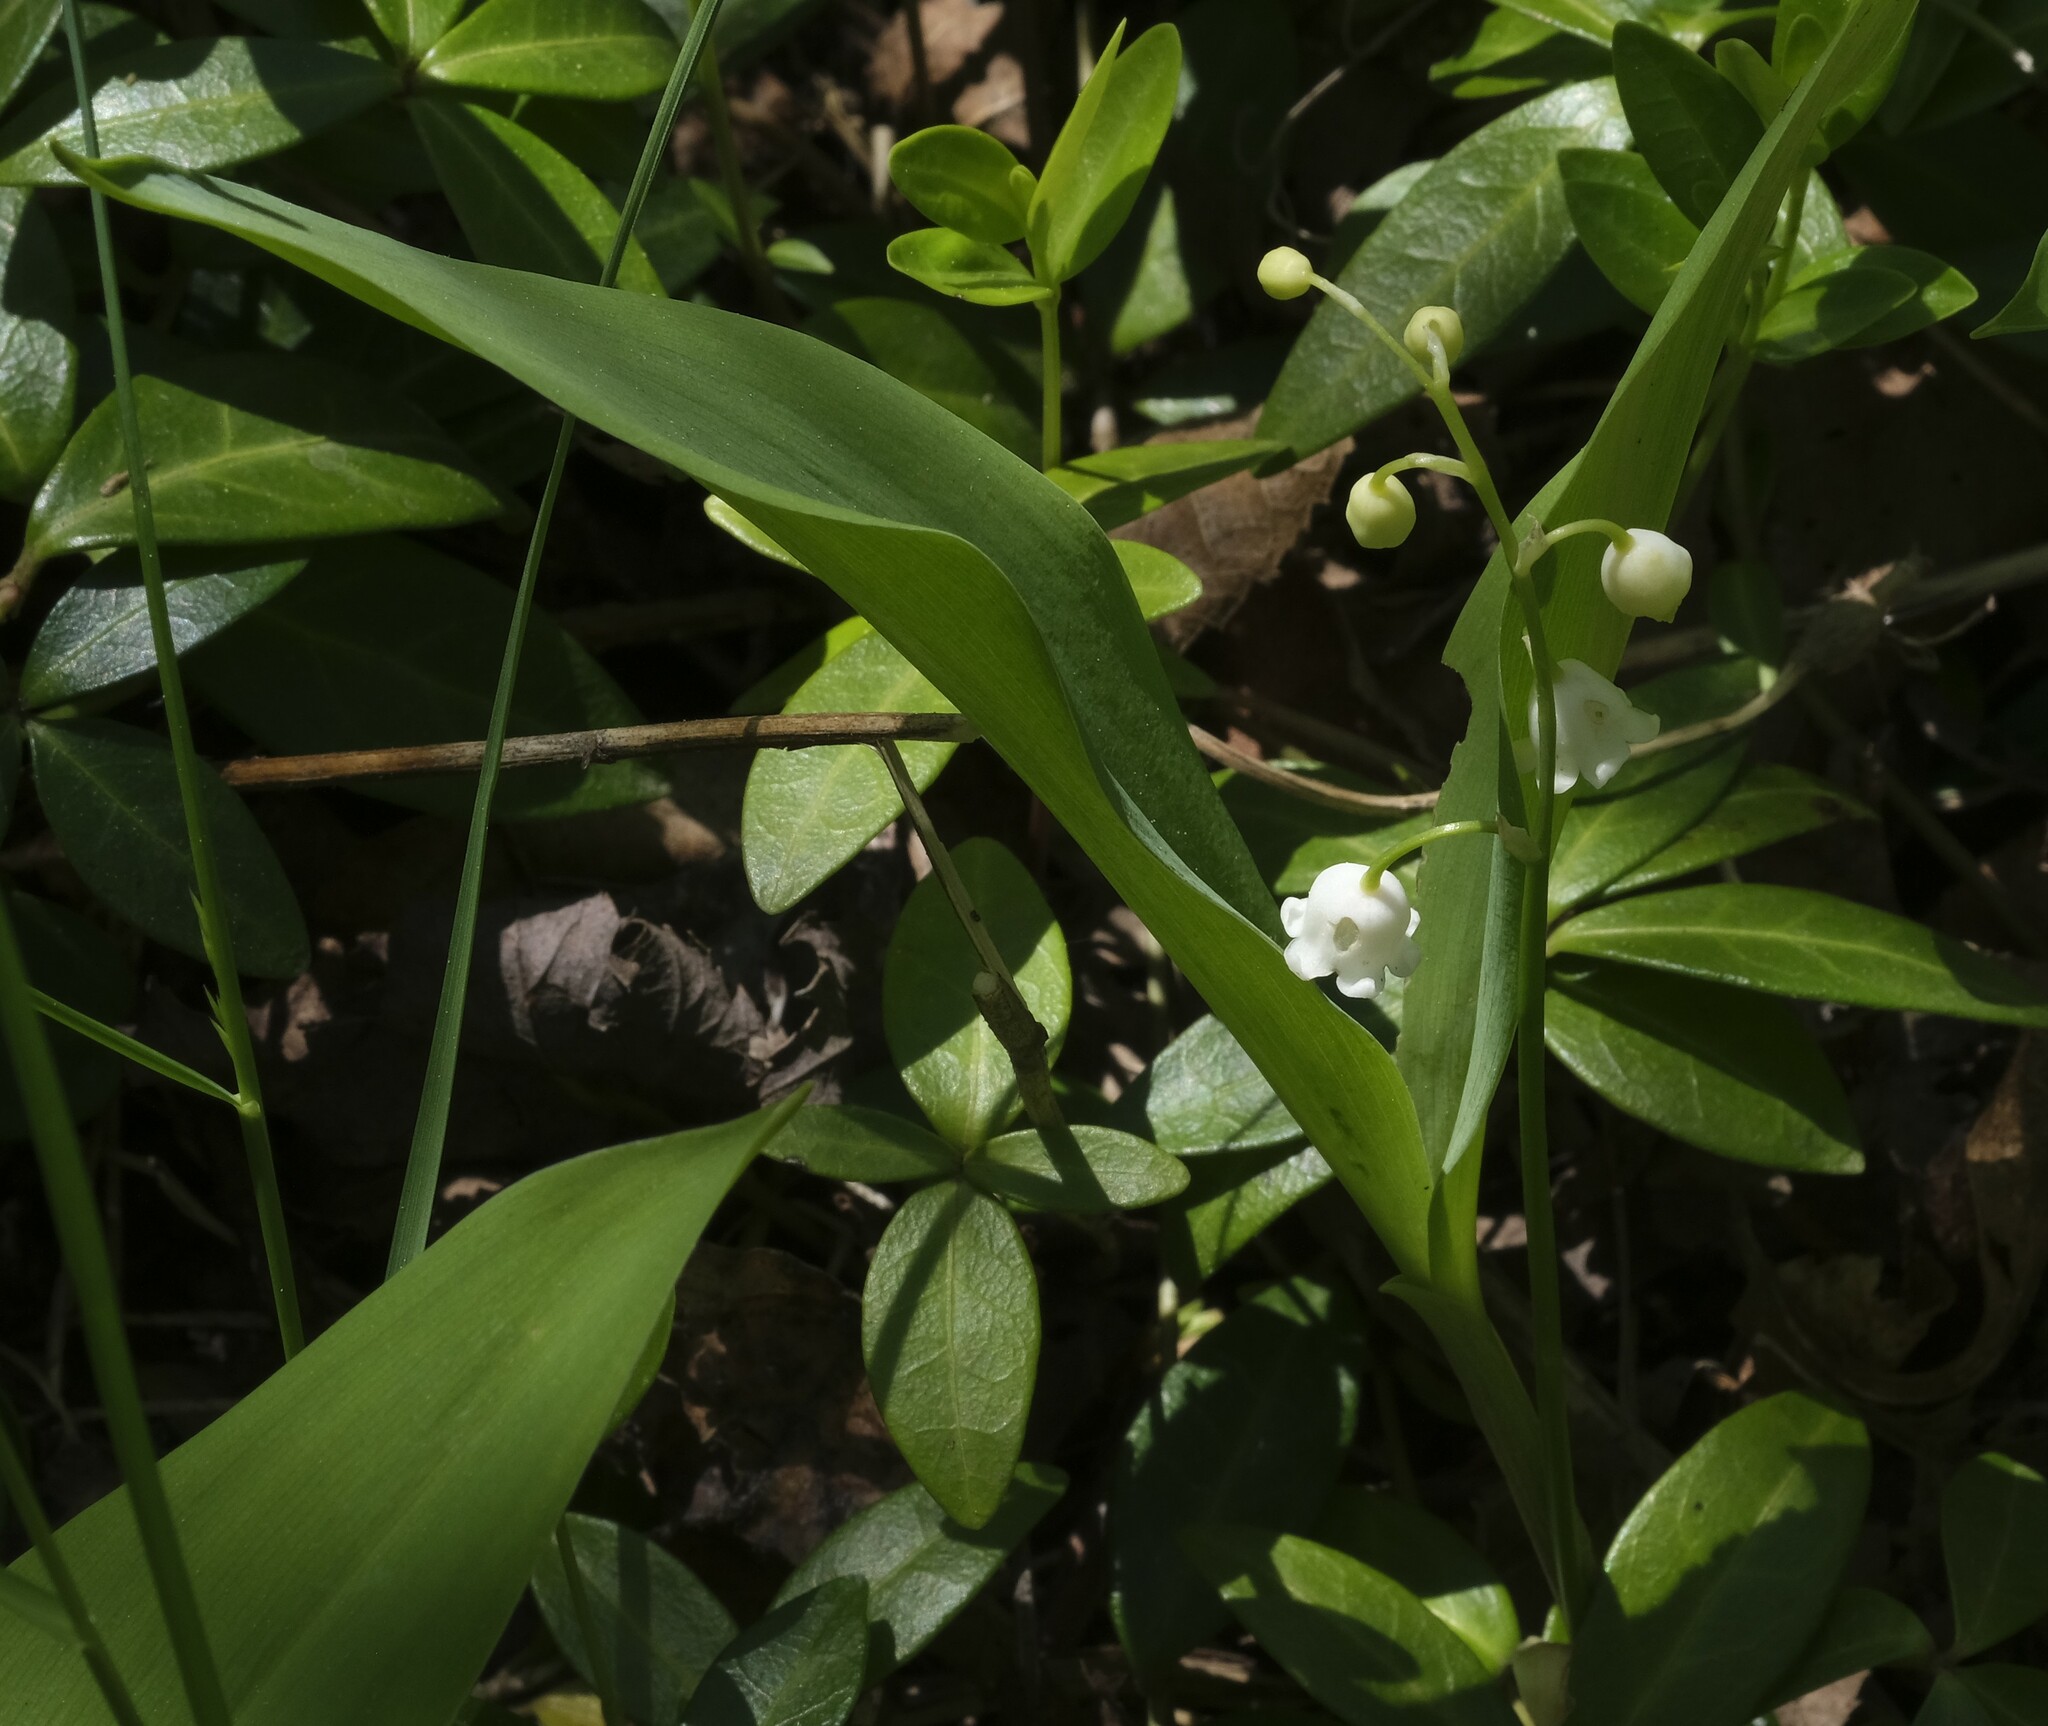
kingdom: Plantae
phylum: Tracheophyta
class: Liliopsida
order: Asparagales
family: Asparagaceae
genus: Convallaria
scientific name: Convallaria majalis
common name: Lily-of-the-valley
